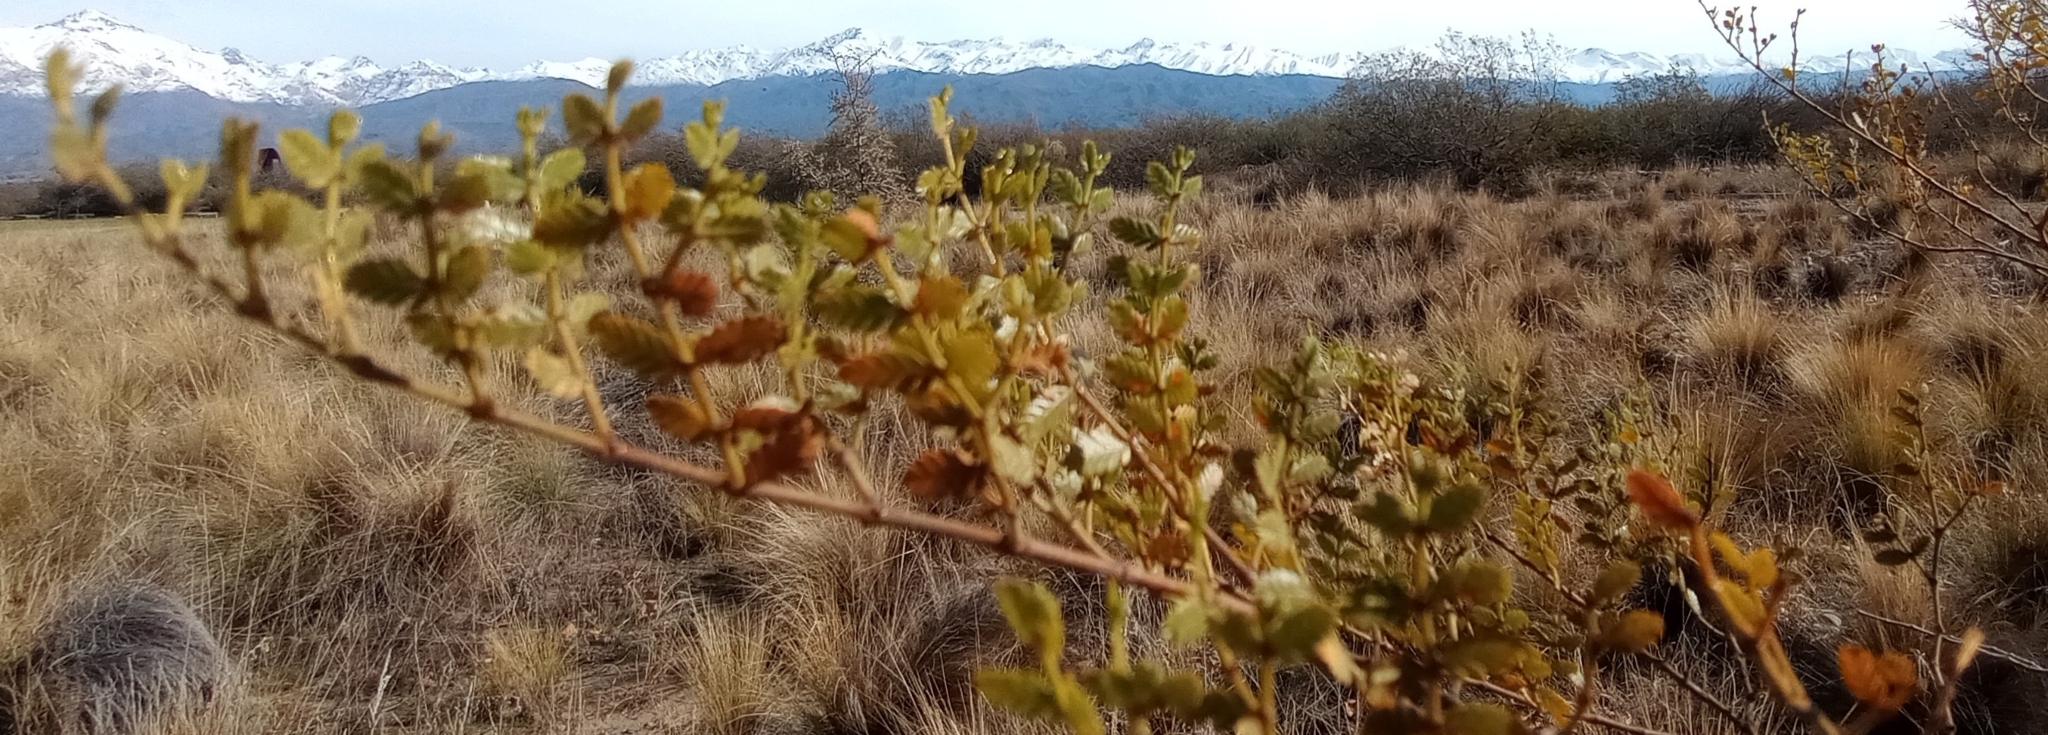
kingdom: Plantae
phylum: Tracheophyta
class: Magnoliopsida
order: Zygophyllales
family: Zygophyllaceae
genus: Larrea
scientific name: Larrea nitida
